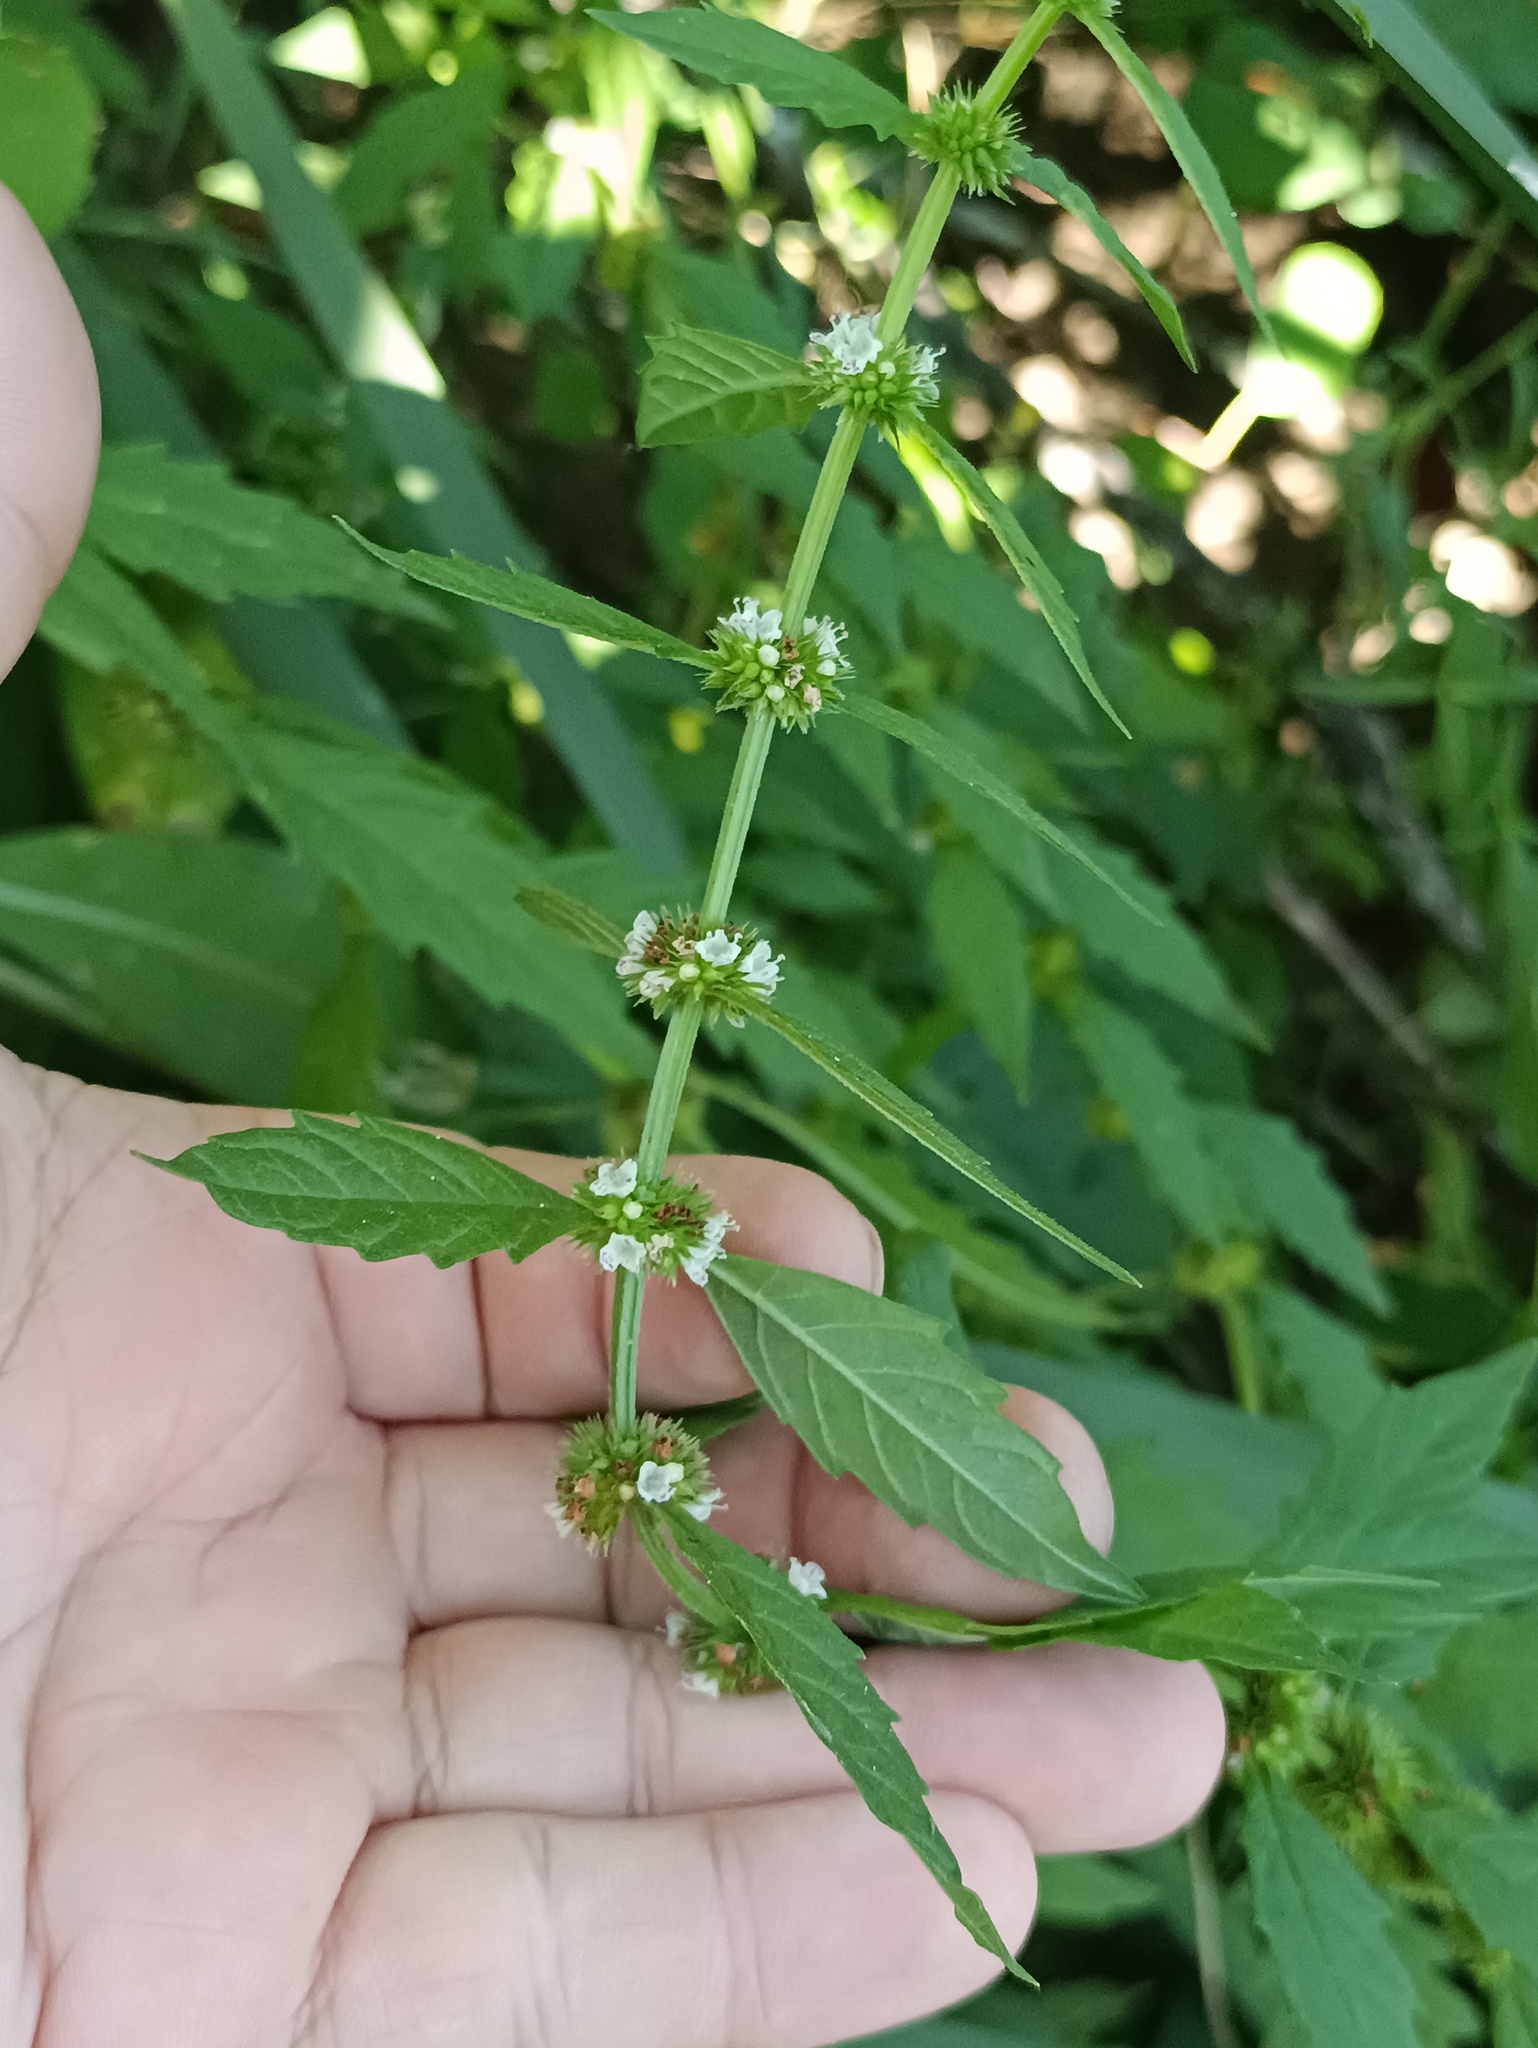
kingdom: Plantae
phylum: Tracheophyta
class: Magnoliopsida
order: Lamiales
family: Lamiaceae
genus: Lycopus
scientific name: Lycopus europaeus
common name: European bugleweed
